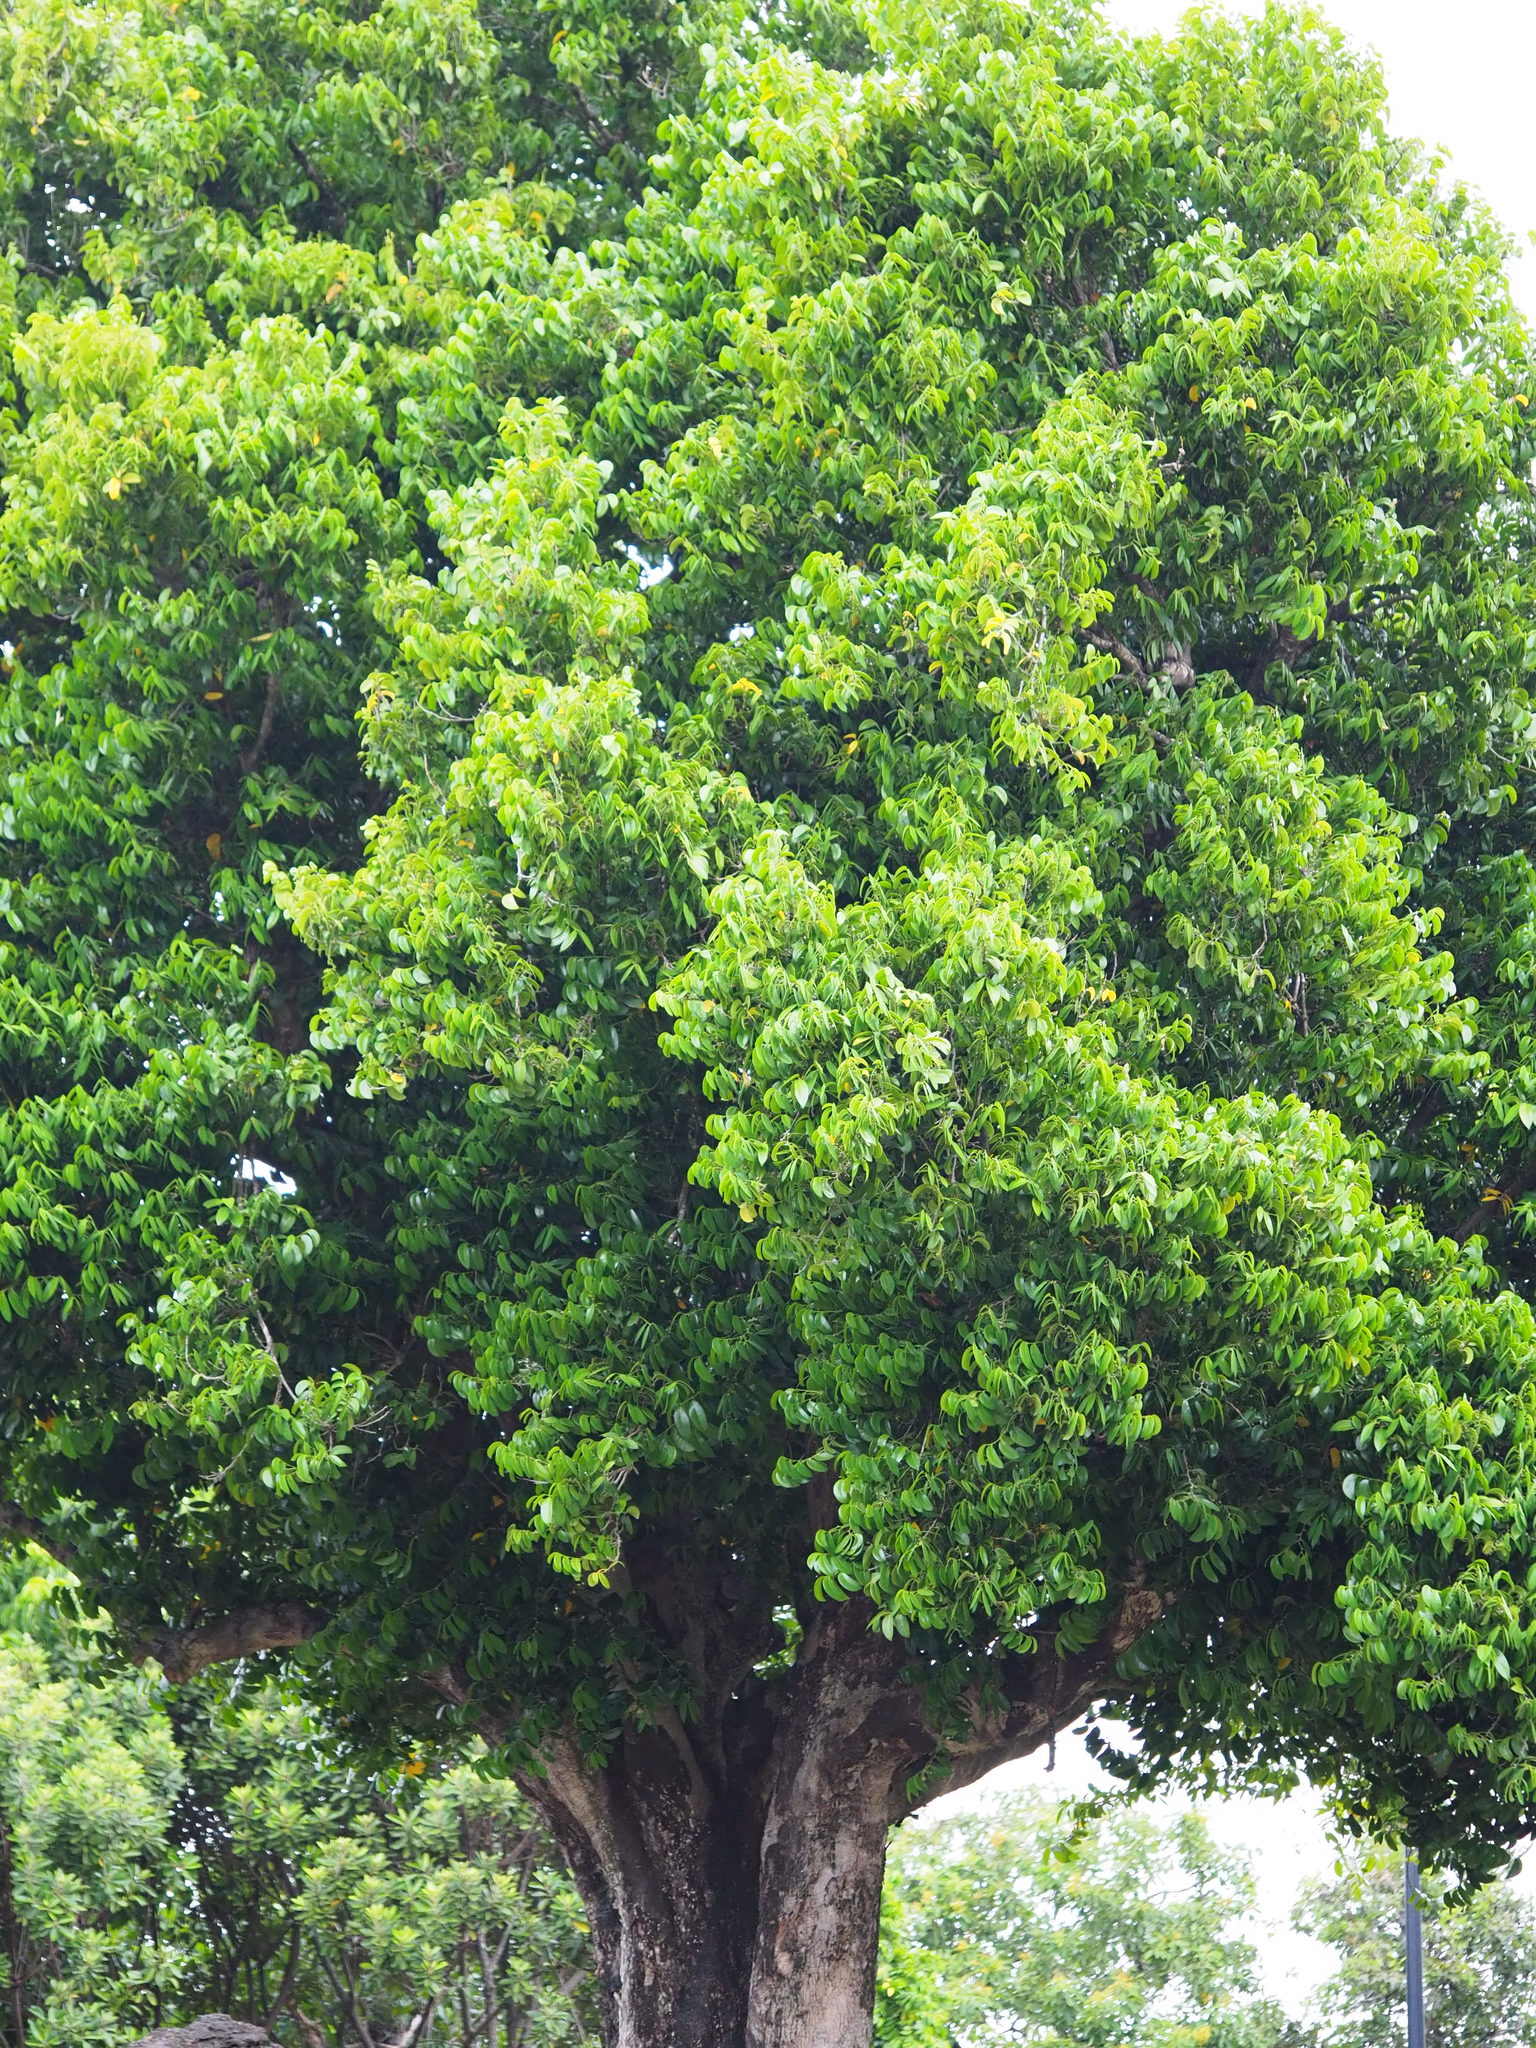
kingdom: Plantae
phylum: Tracheophyta
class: Magnoliopsida
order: Malpighiales
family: Putranjivaceae
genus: Drypetes
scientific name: Drypetes littoralis
